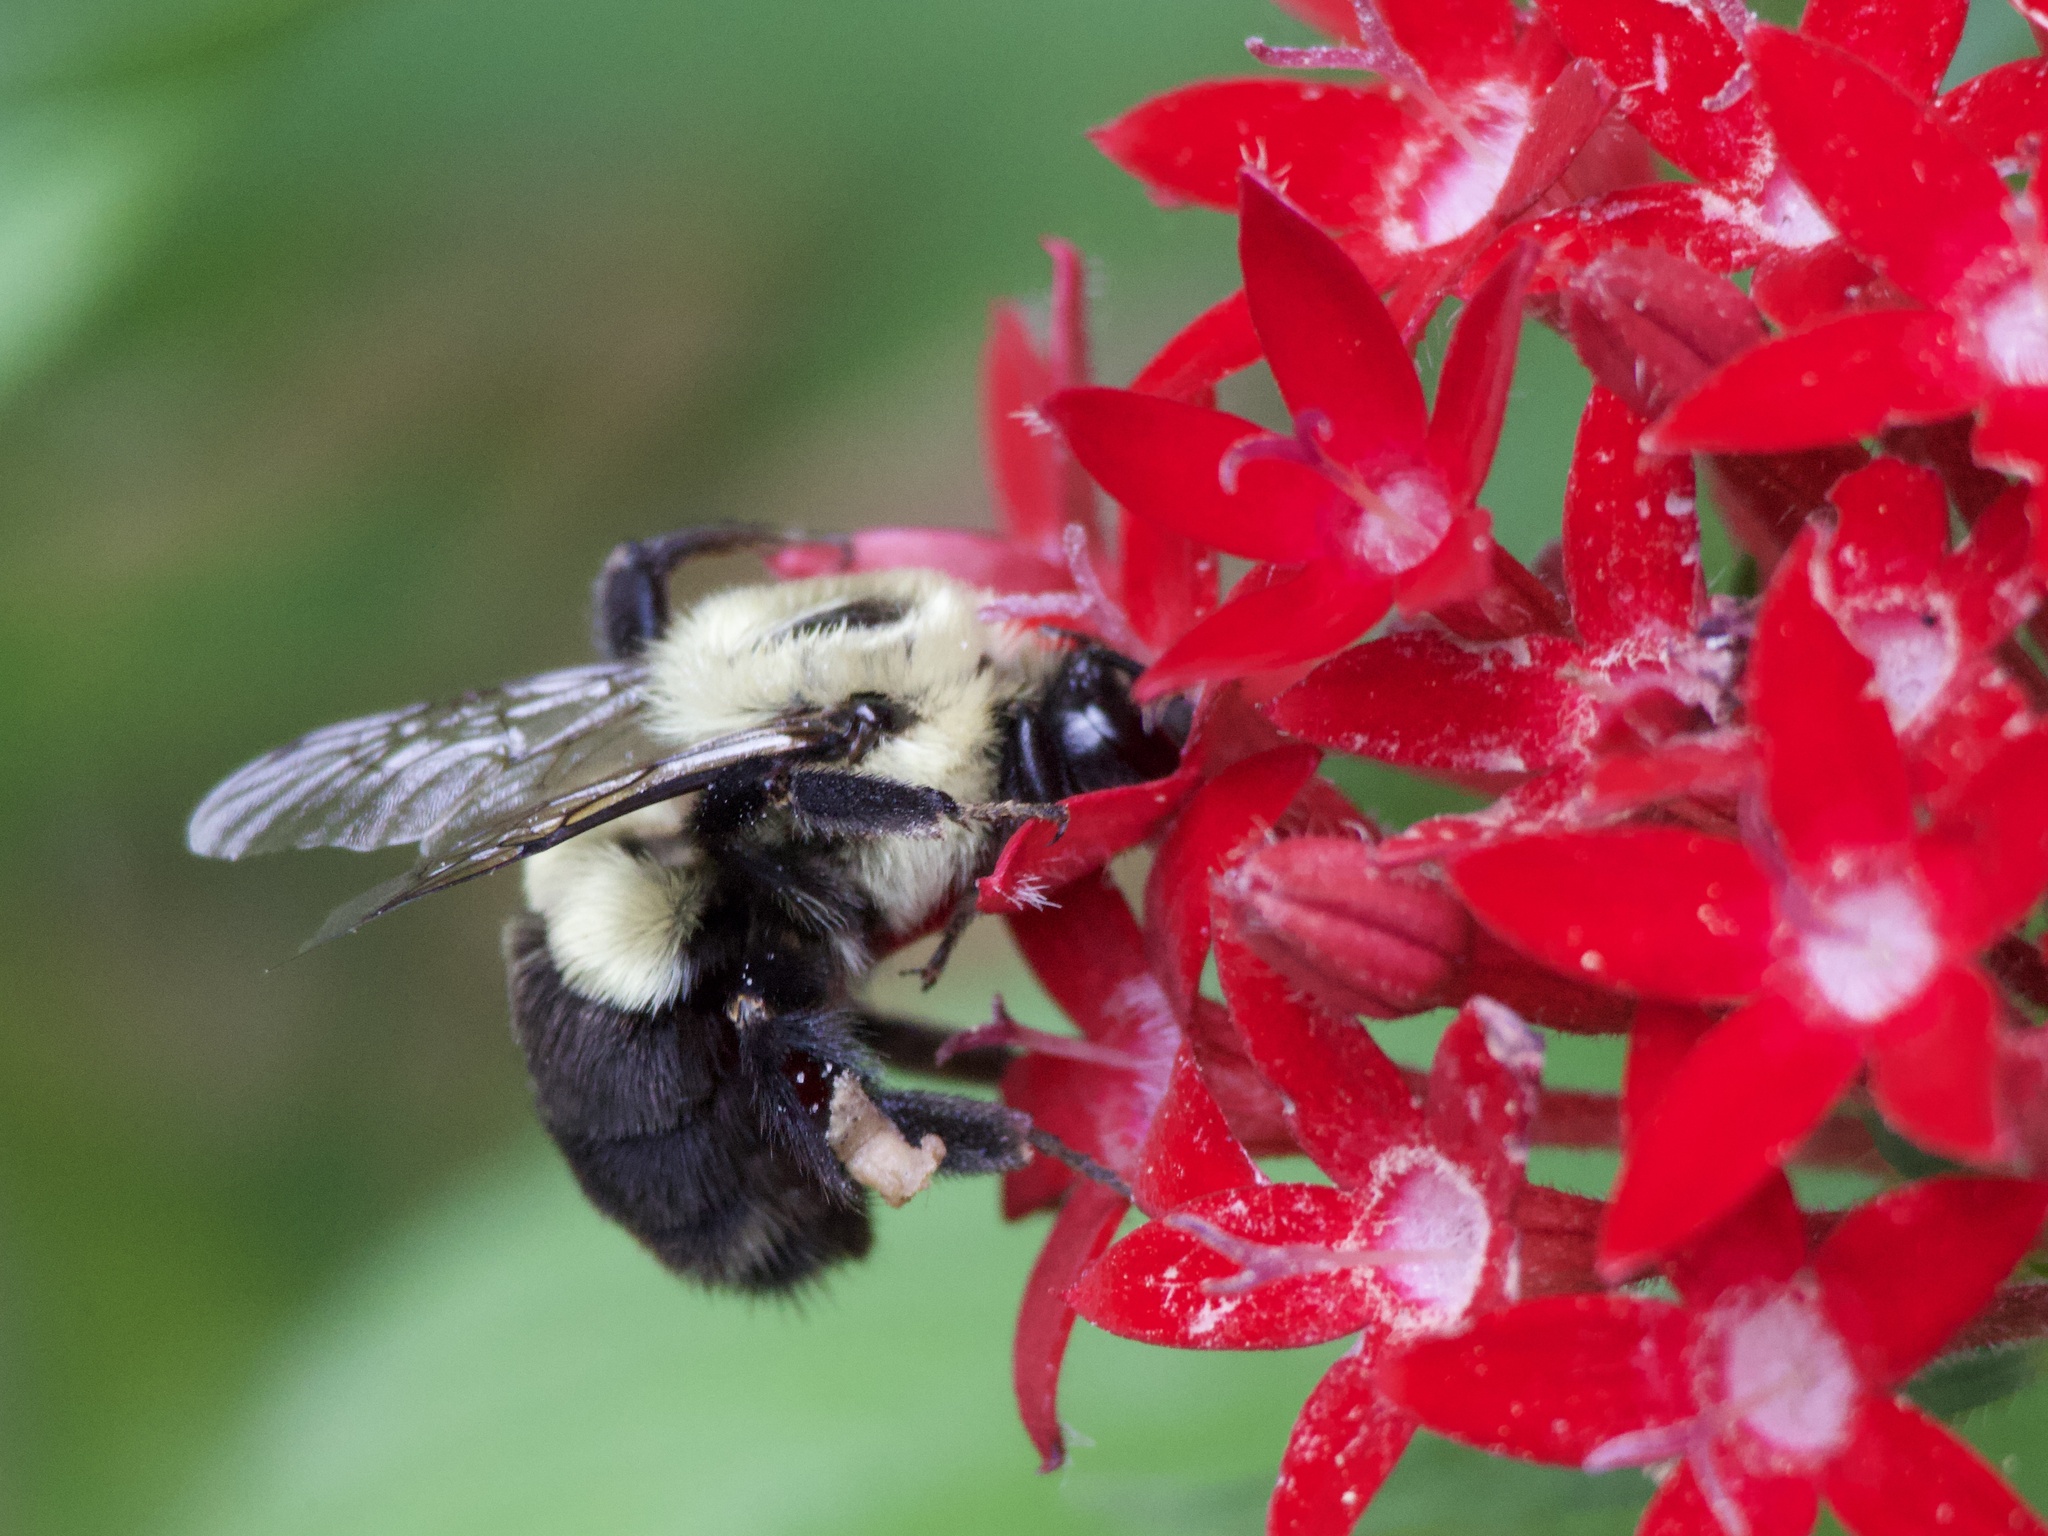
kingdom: Animalia
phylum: Arthropoda
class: Insecta
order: Hymenoptera
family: Apidae
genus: Bombus
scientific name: Bombus impatiens
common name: Common eastern bumble bee
